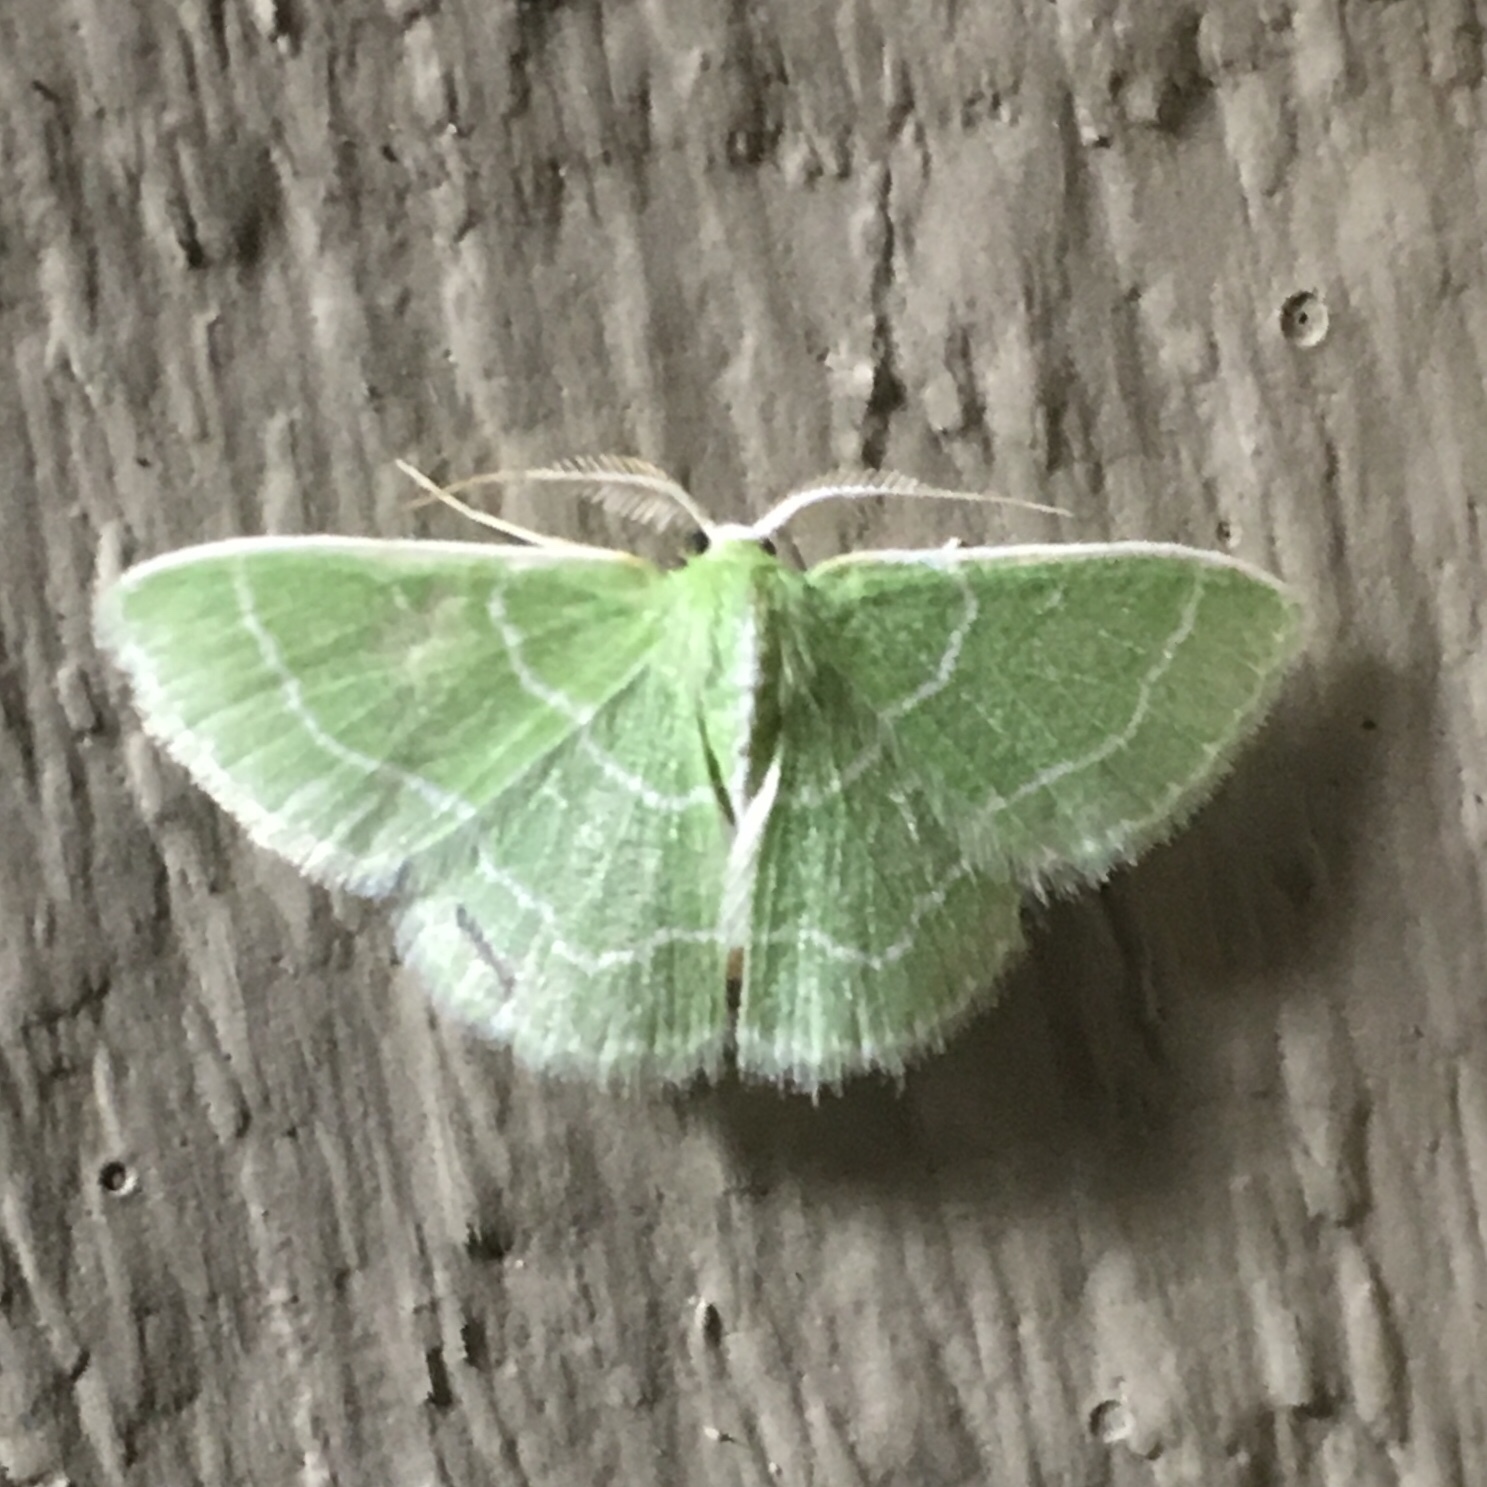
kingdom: Animalia
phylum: Arthropoda
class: Insecta
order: Lepidoptera
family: Geometridae
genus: Synchlora
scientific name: Synchlora aerata
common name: Wavy-lined emerald
